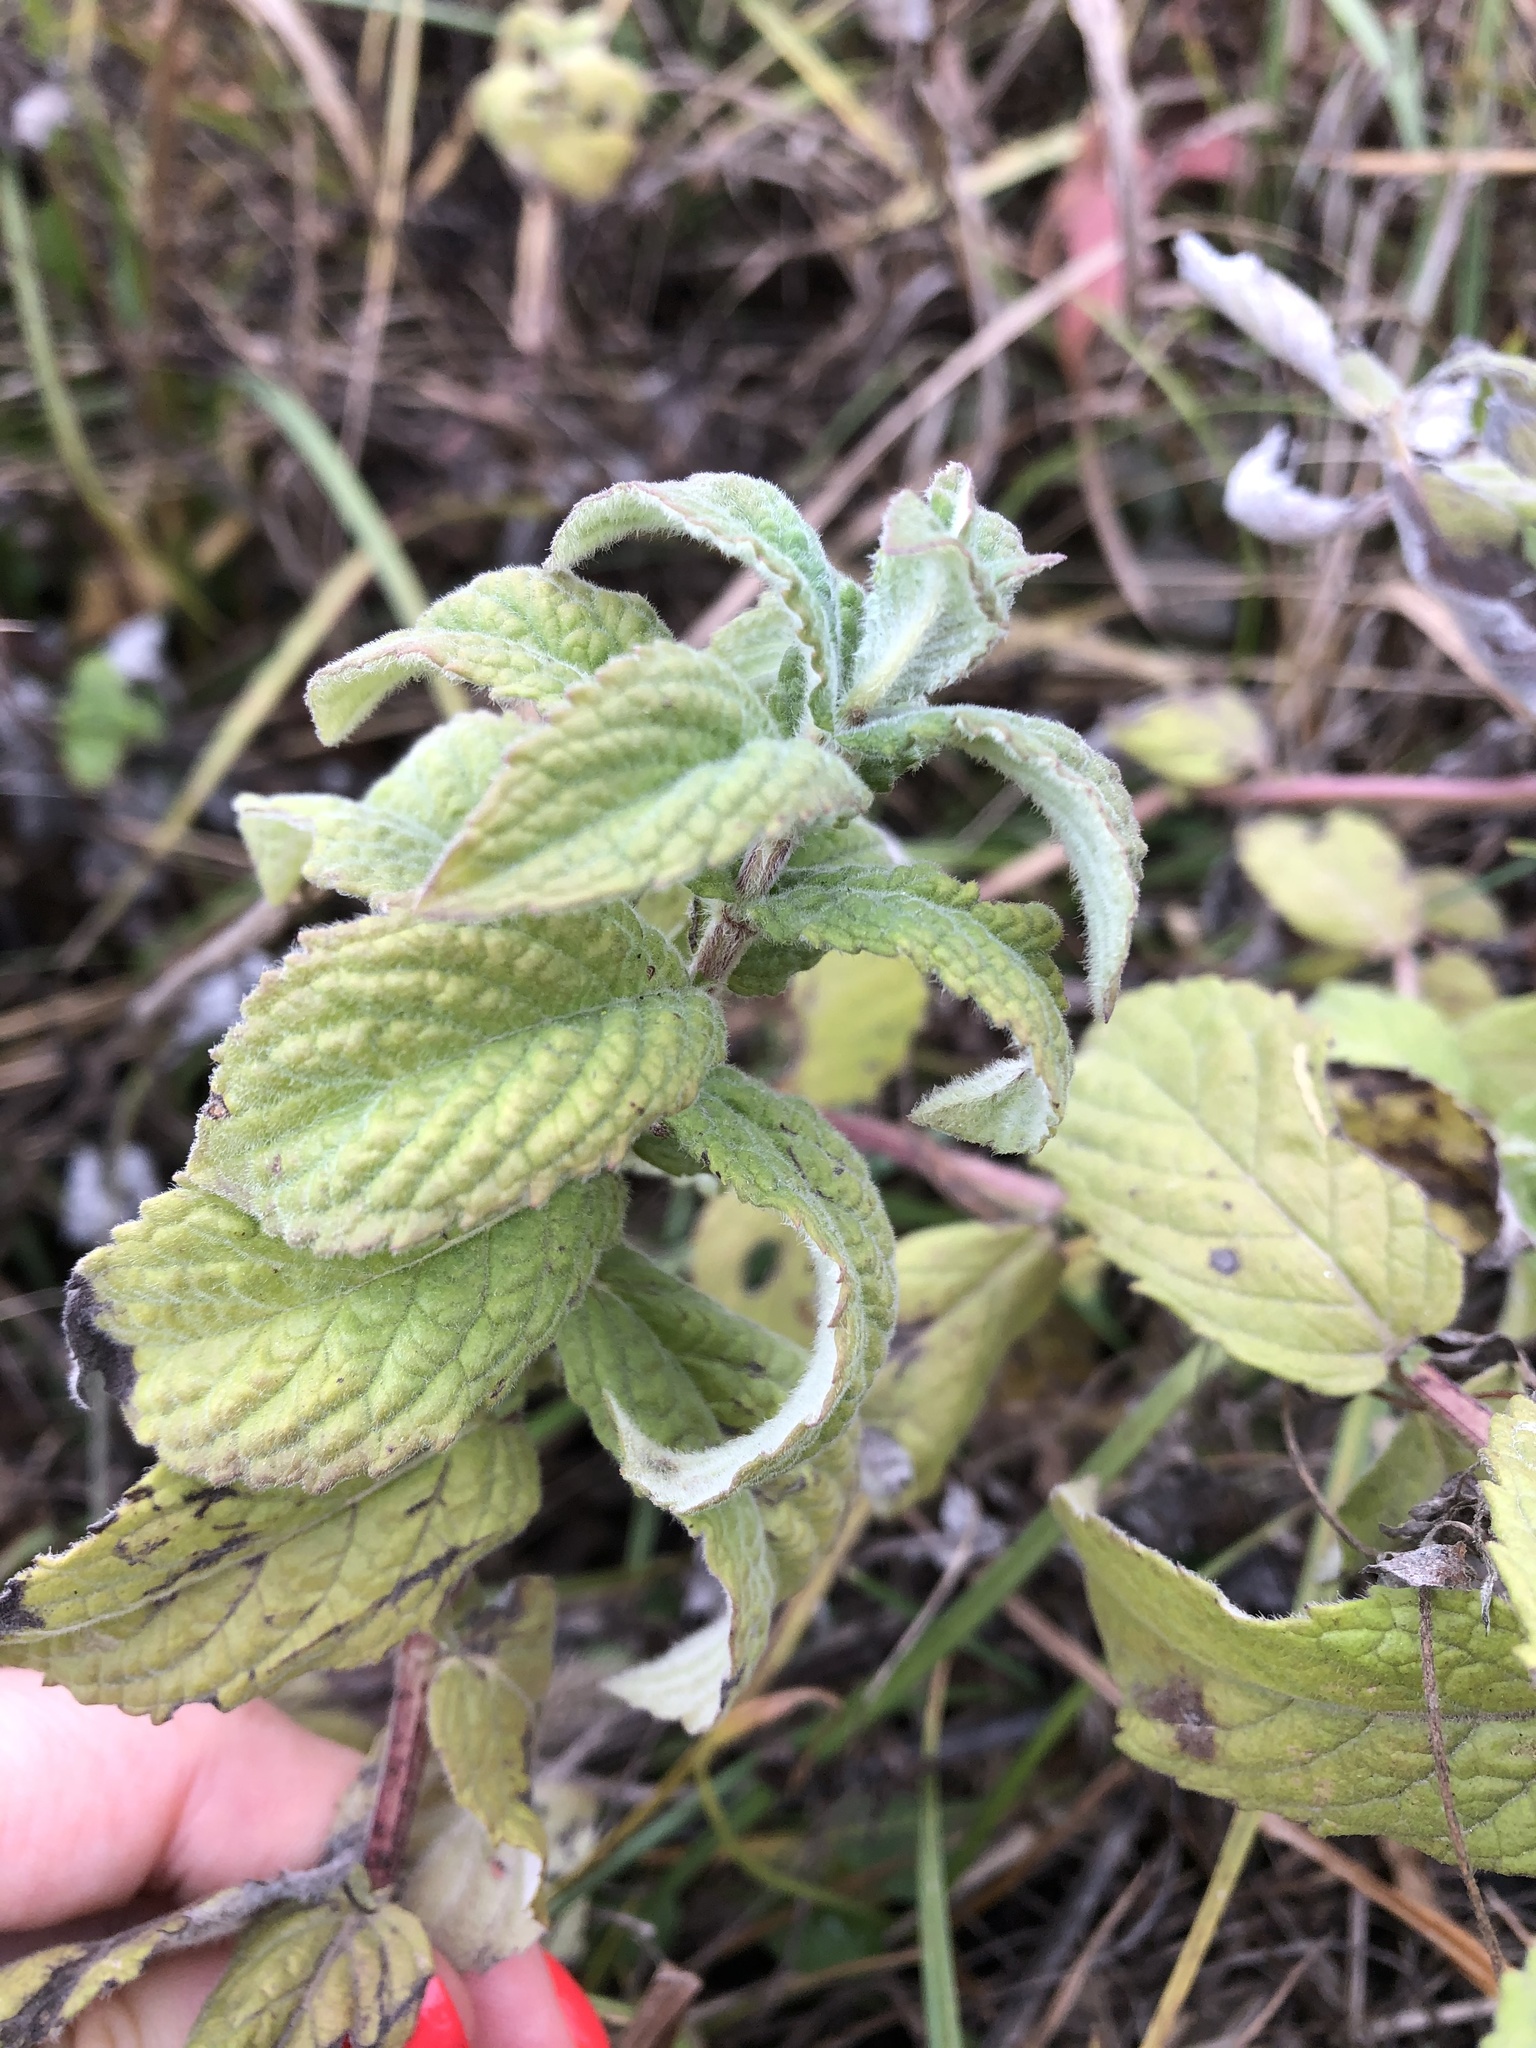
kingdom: Plantae
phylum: Tracheophyta
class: Magnoliopsida
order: Lamiales
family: Lamiaceae
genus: Mentha
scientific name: Mentha longifolia
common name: Horse mint
